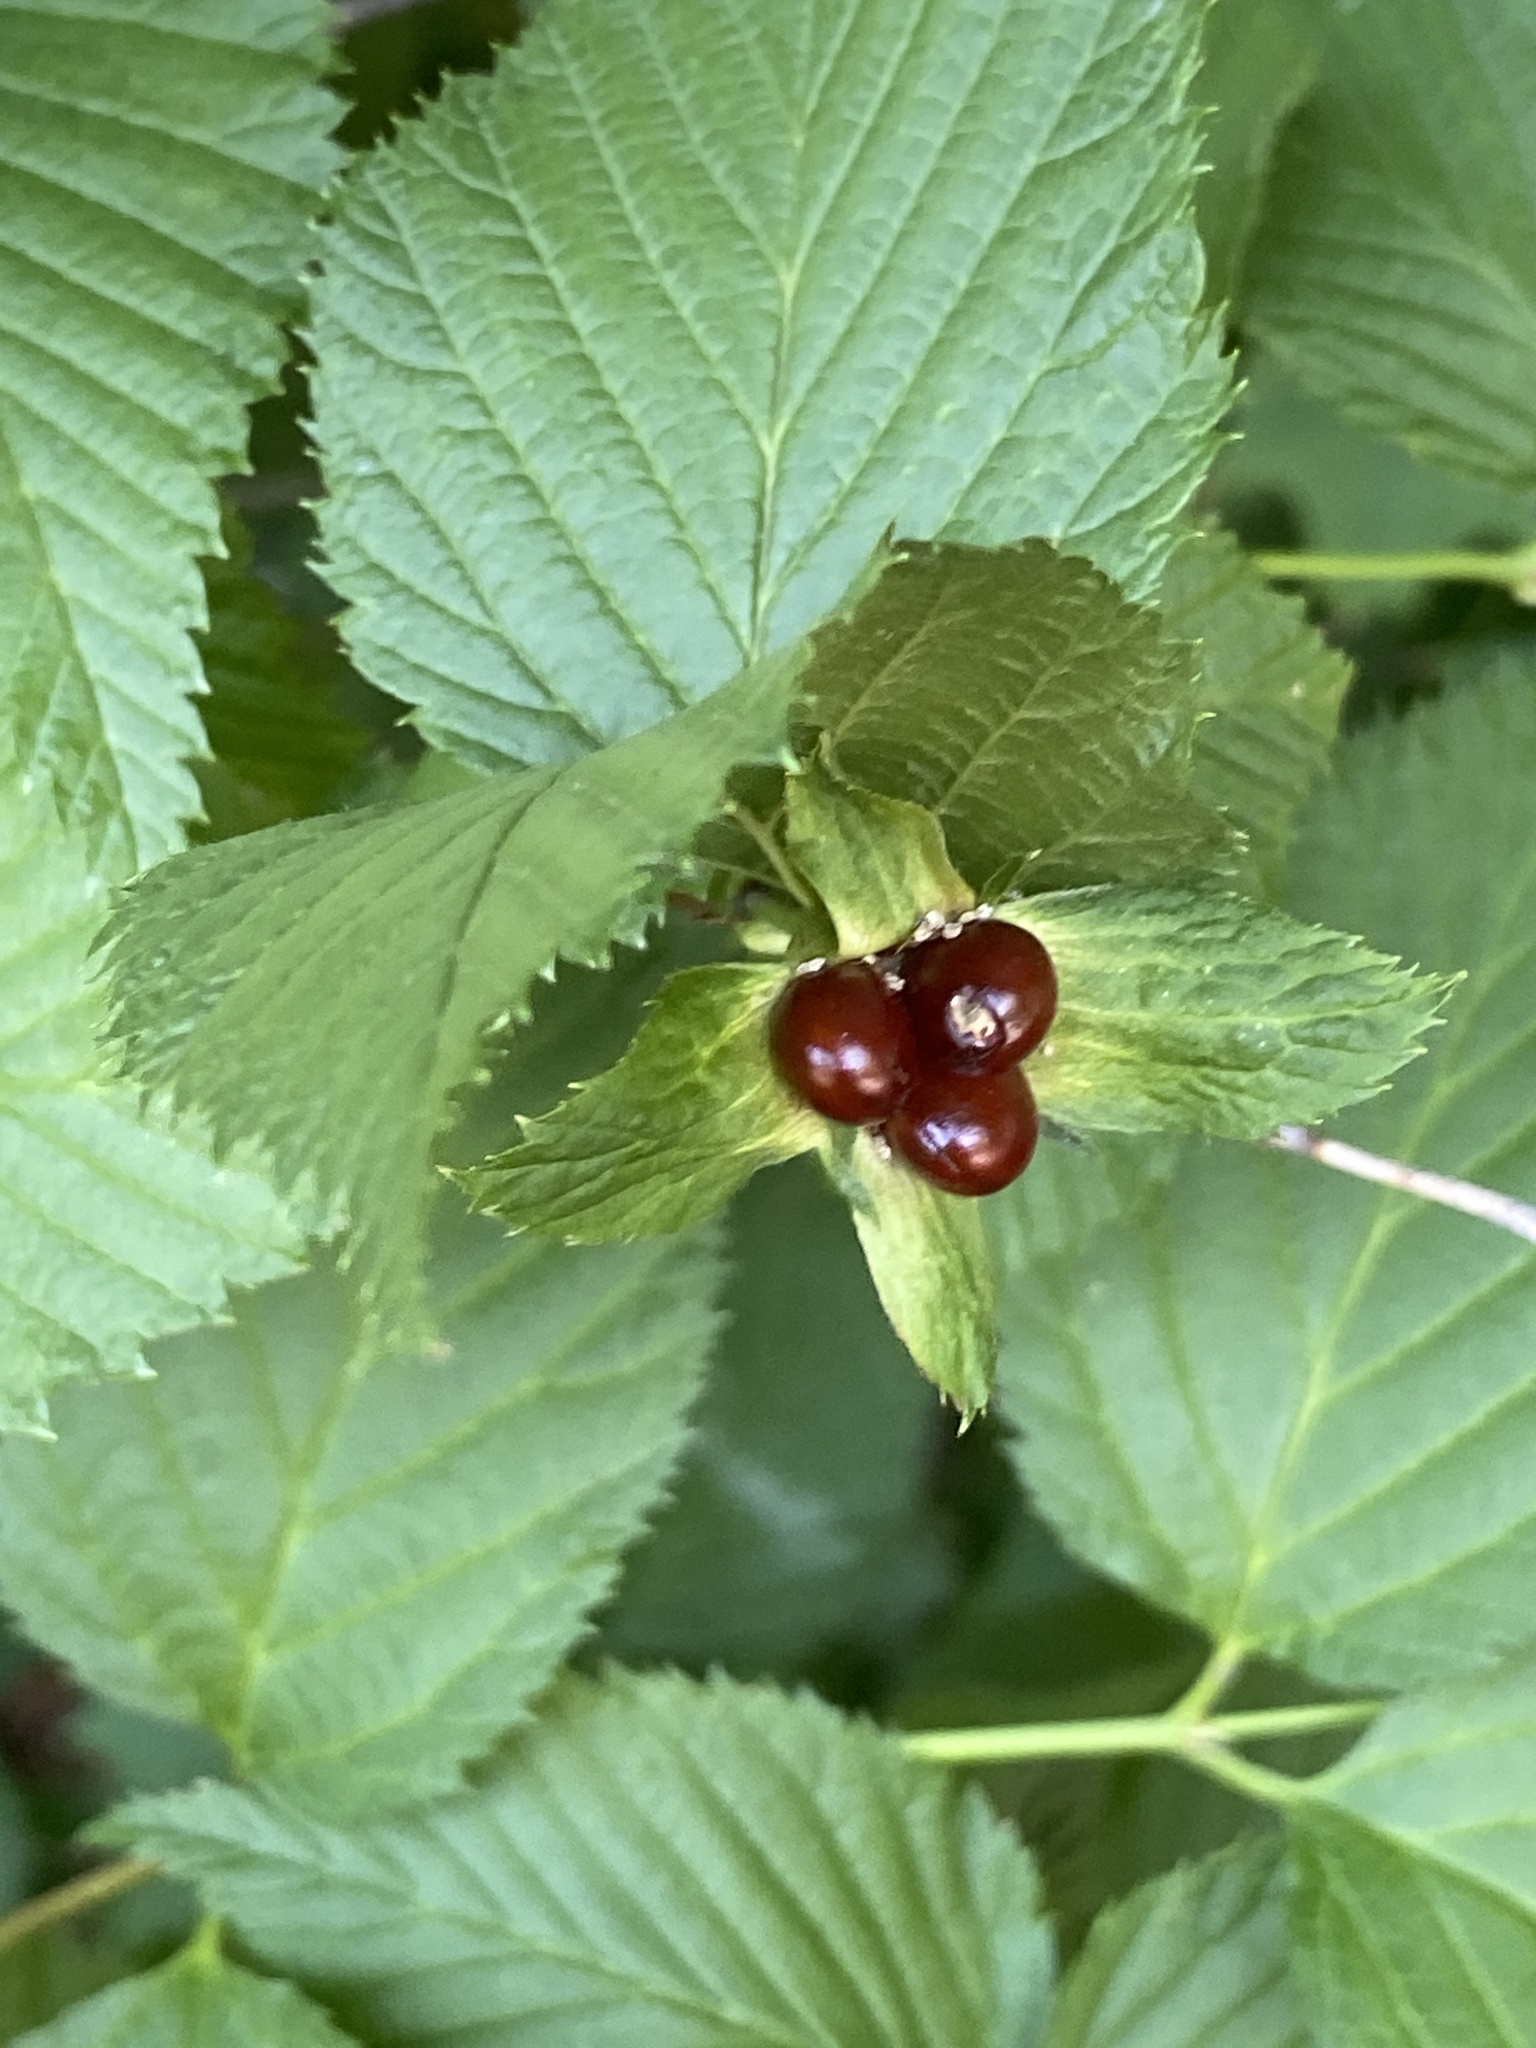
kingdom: Plantae
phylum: Tracheophyta
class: Magnoliopsida
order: Rosales
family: Rosaceae
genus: Rhodotypos
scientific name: Rhodotypos scandens
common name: Jetbead
